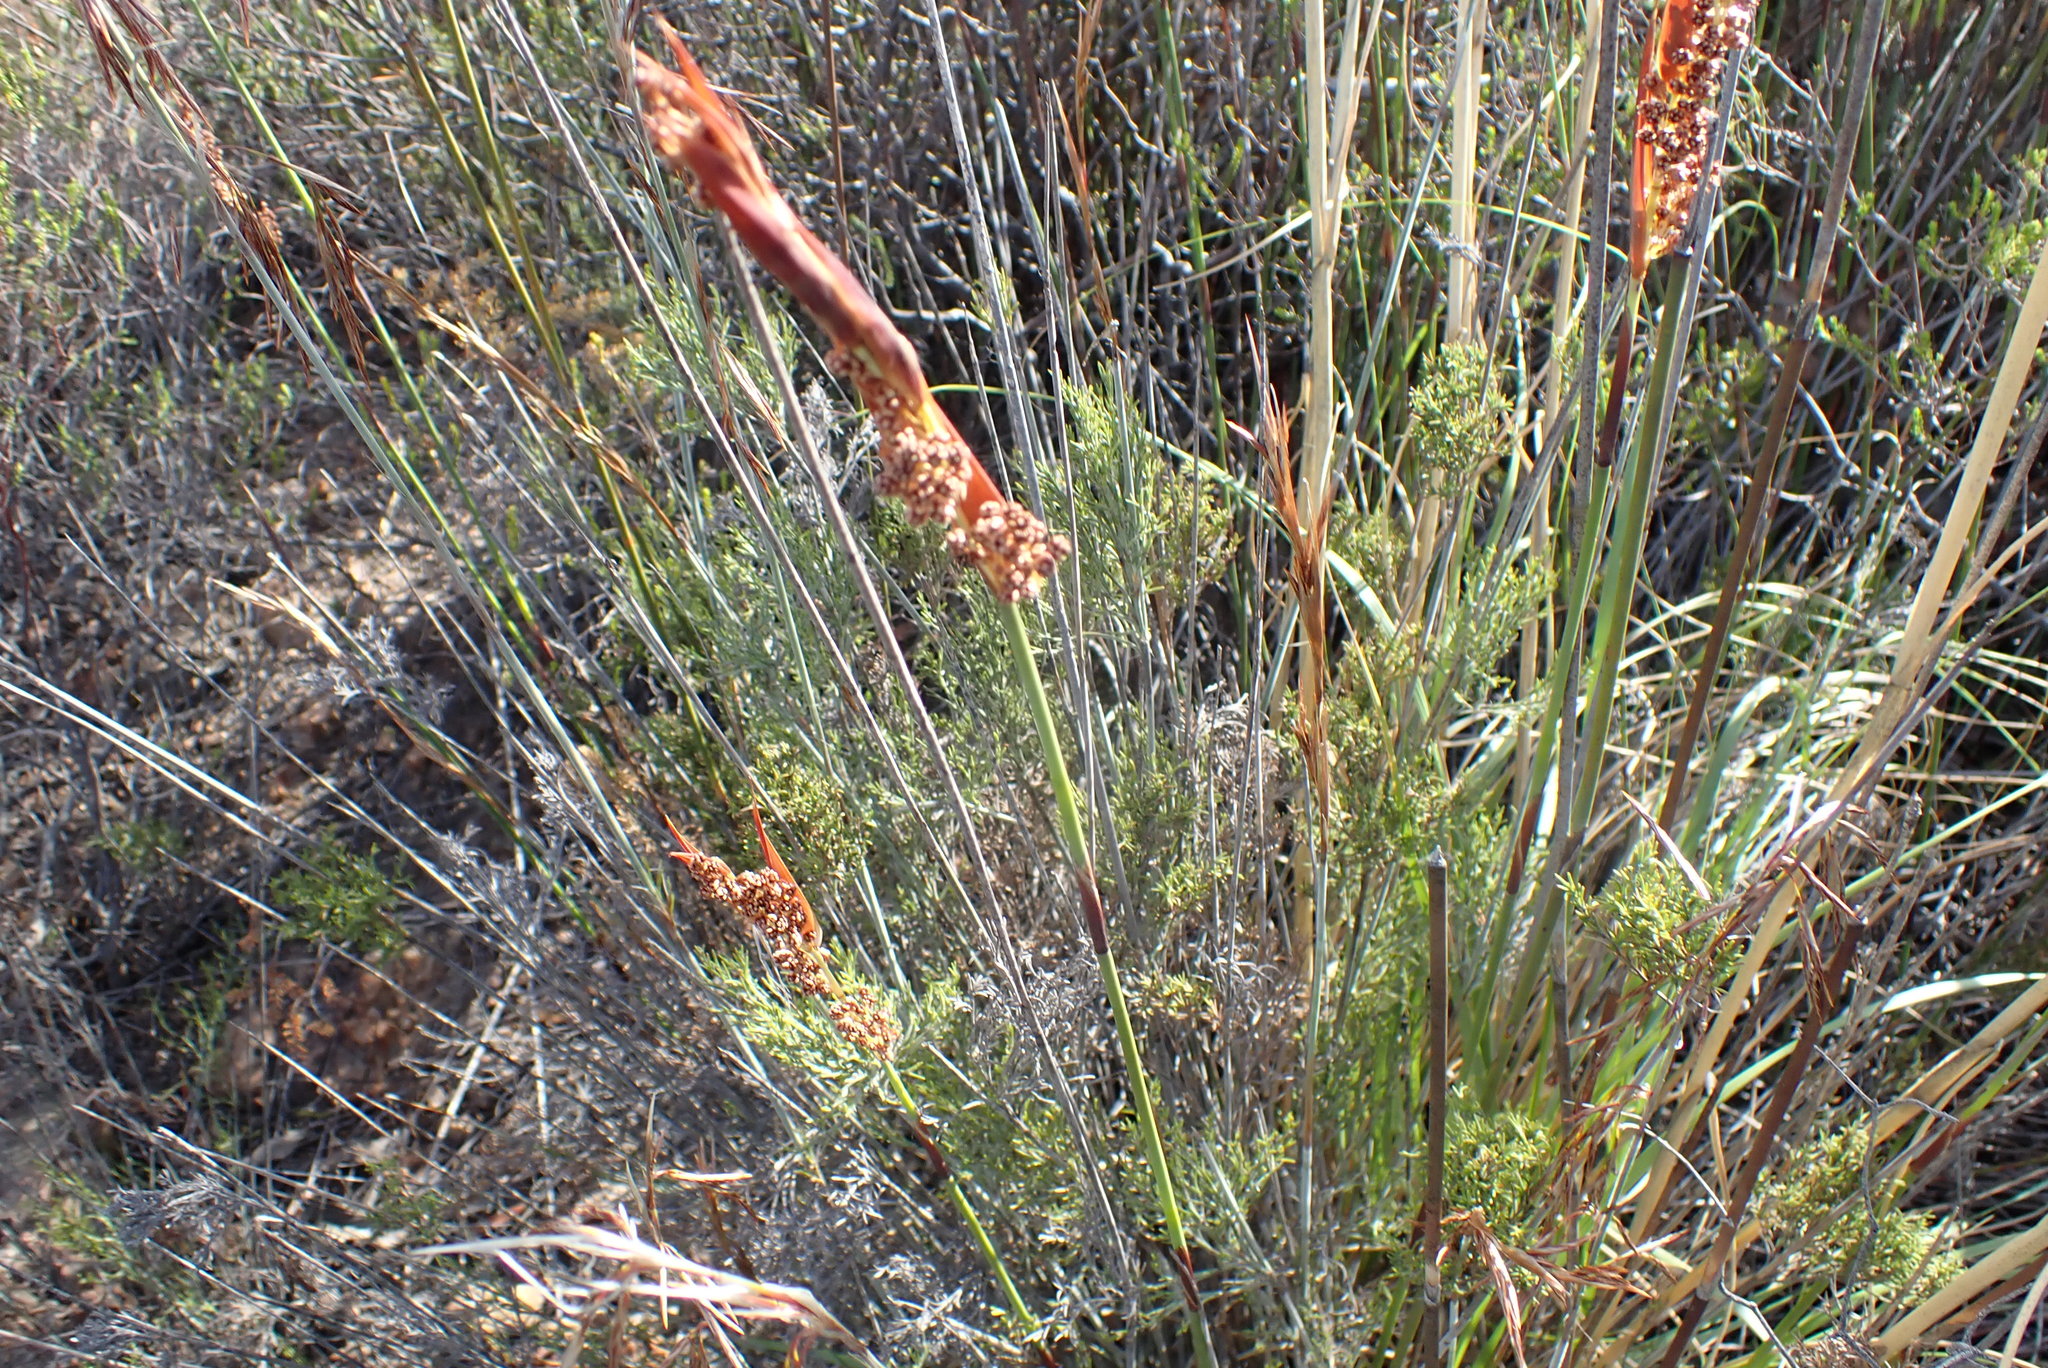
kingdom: Plantae
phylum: Tracheophyta
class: Liliopsida
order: Poales
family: Restionaceae
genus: Thamnochortus
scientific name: Thamnochortus rigidus
